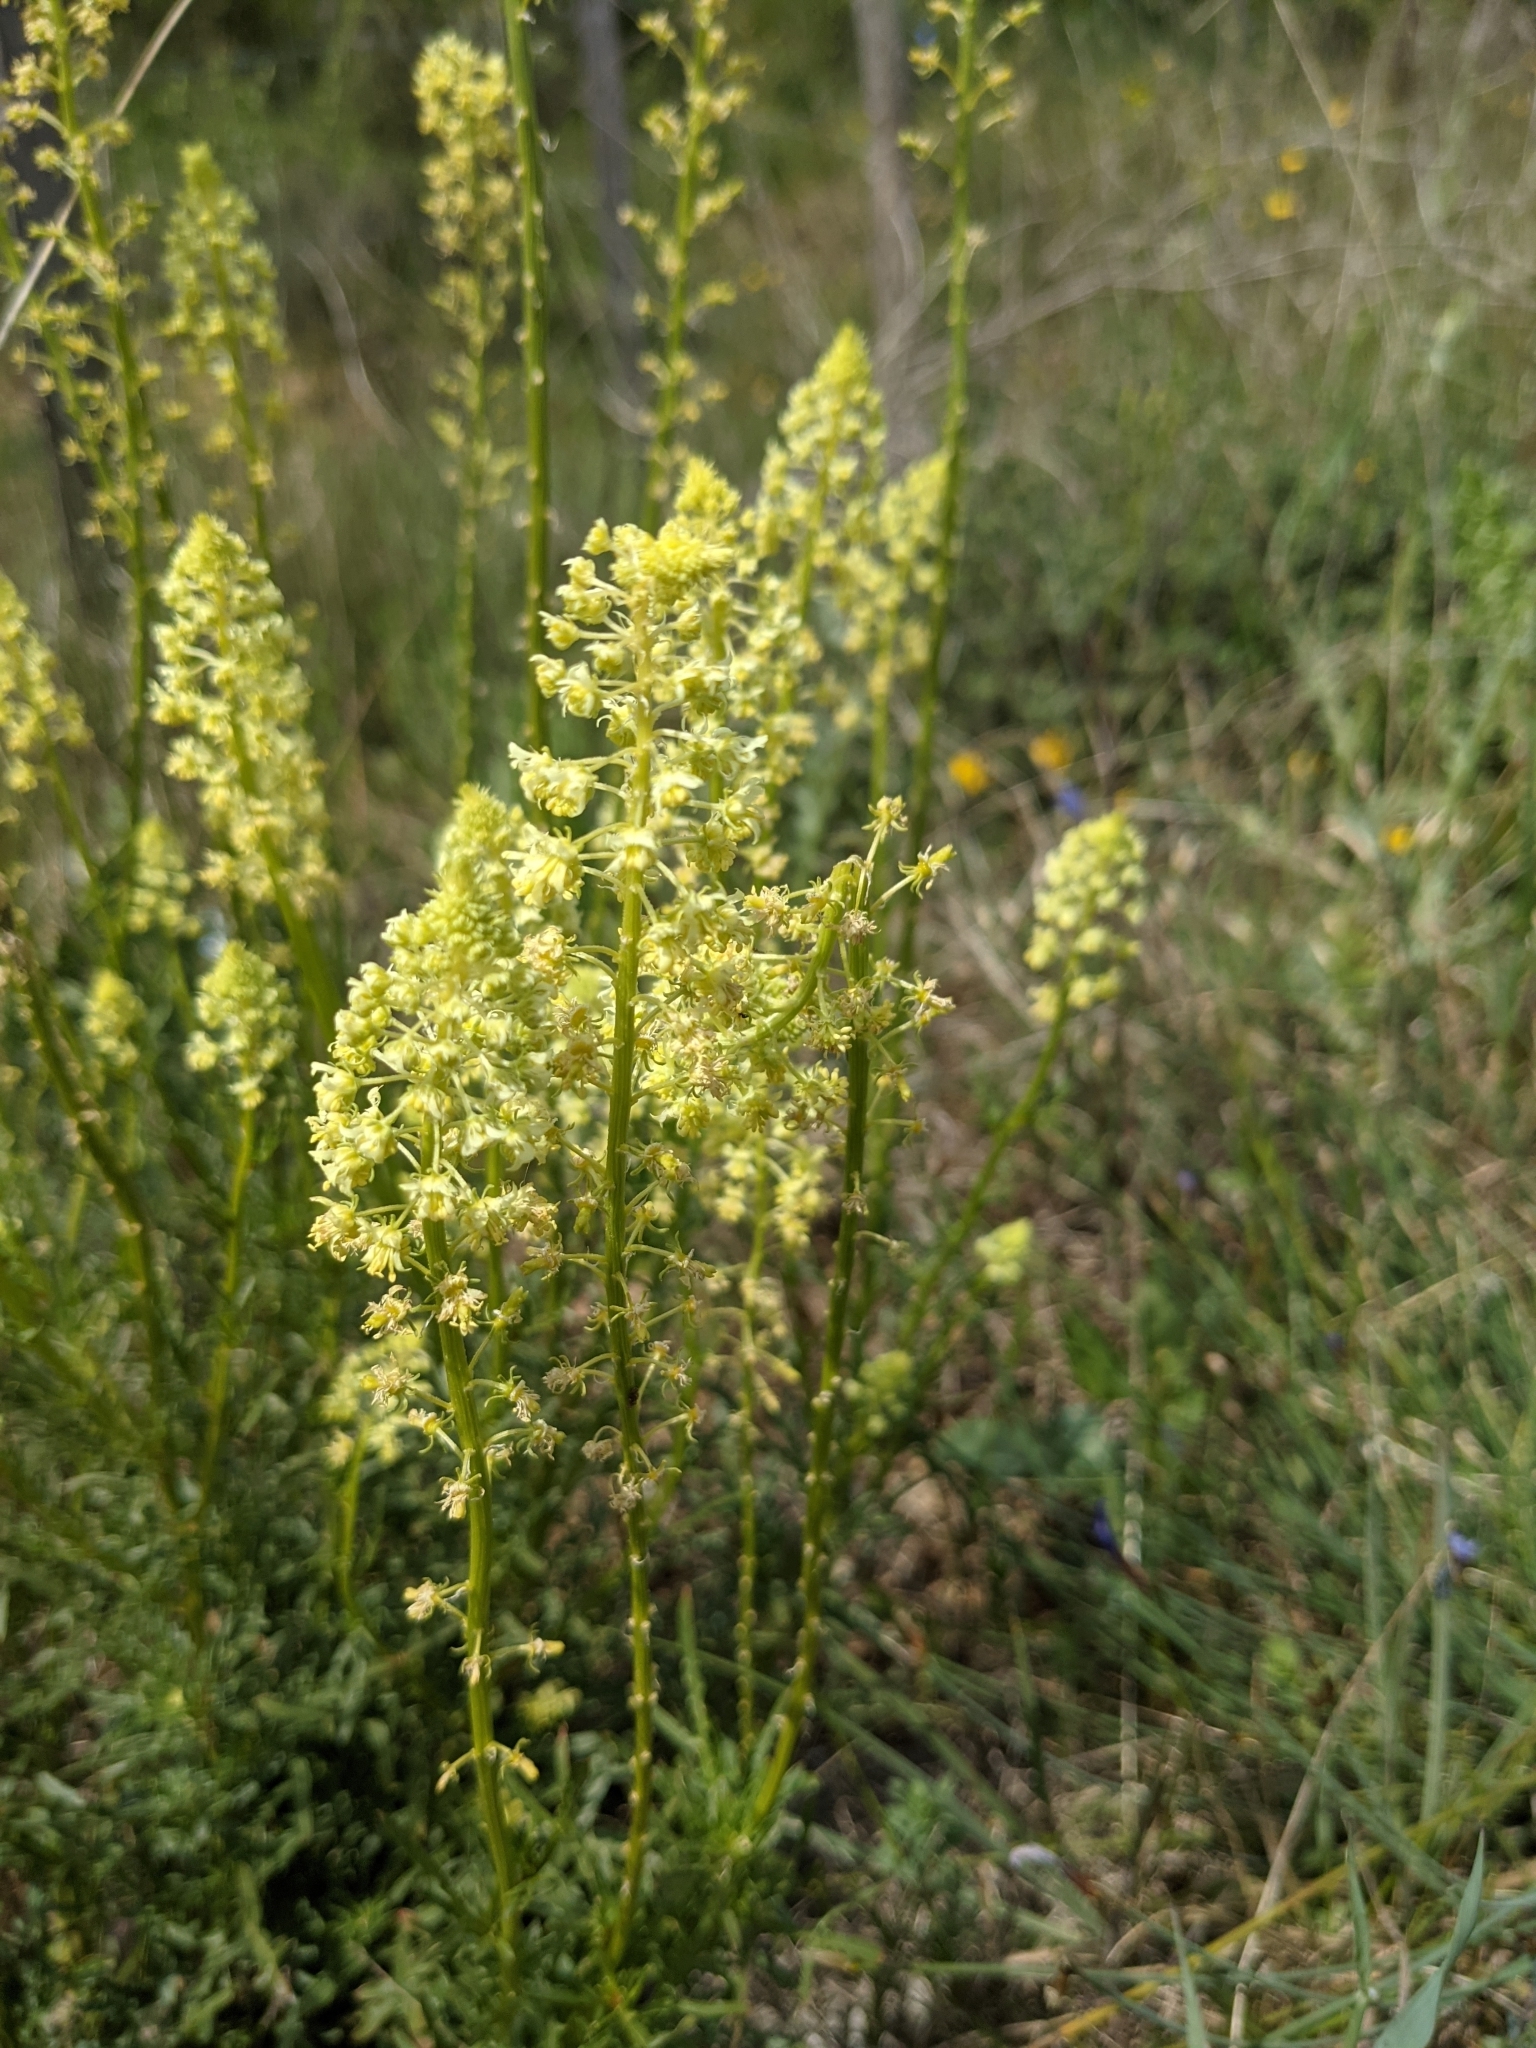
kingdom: Plantae
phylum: Tracheophyta
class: Magnoliopsida
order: Brassicales
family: Resedaceae
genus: Reseda
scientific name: Reseda lutea
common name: Wild mignonette
